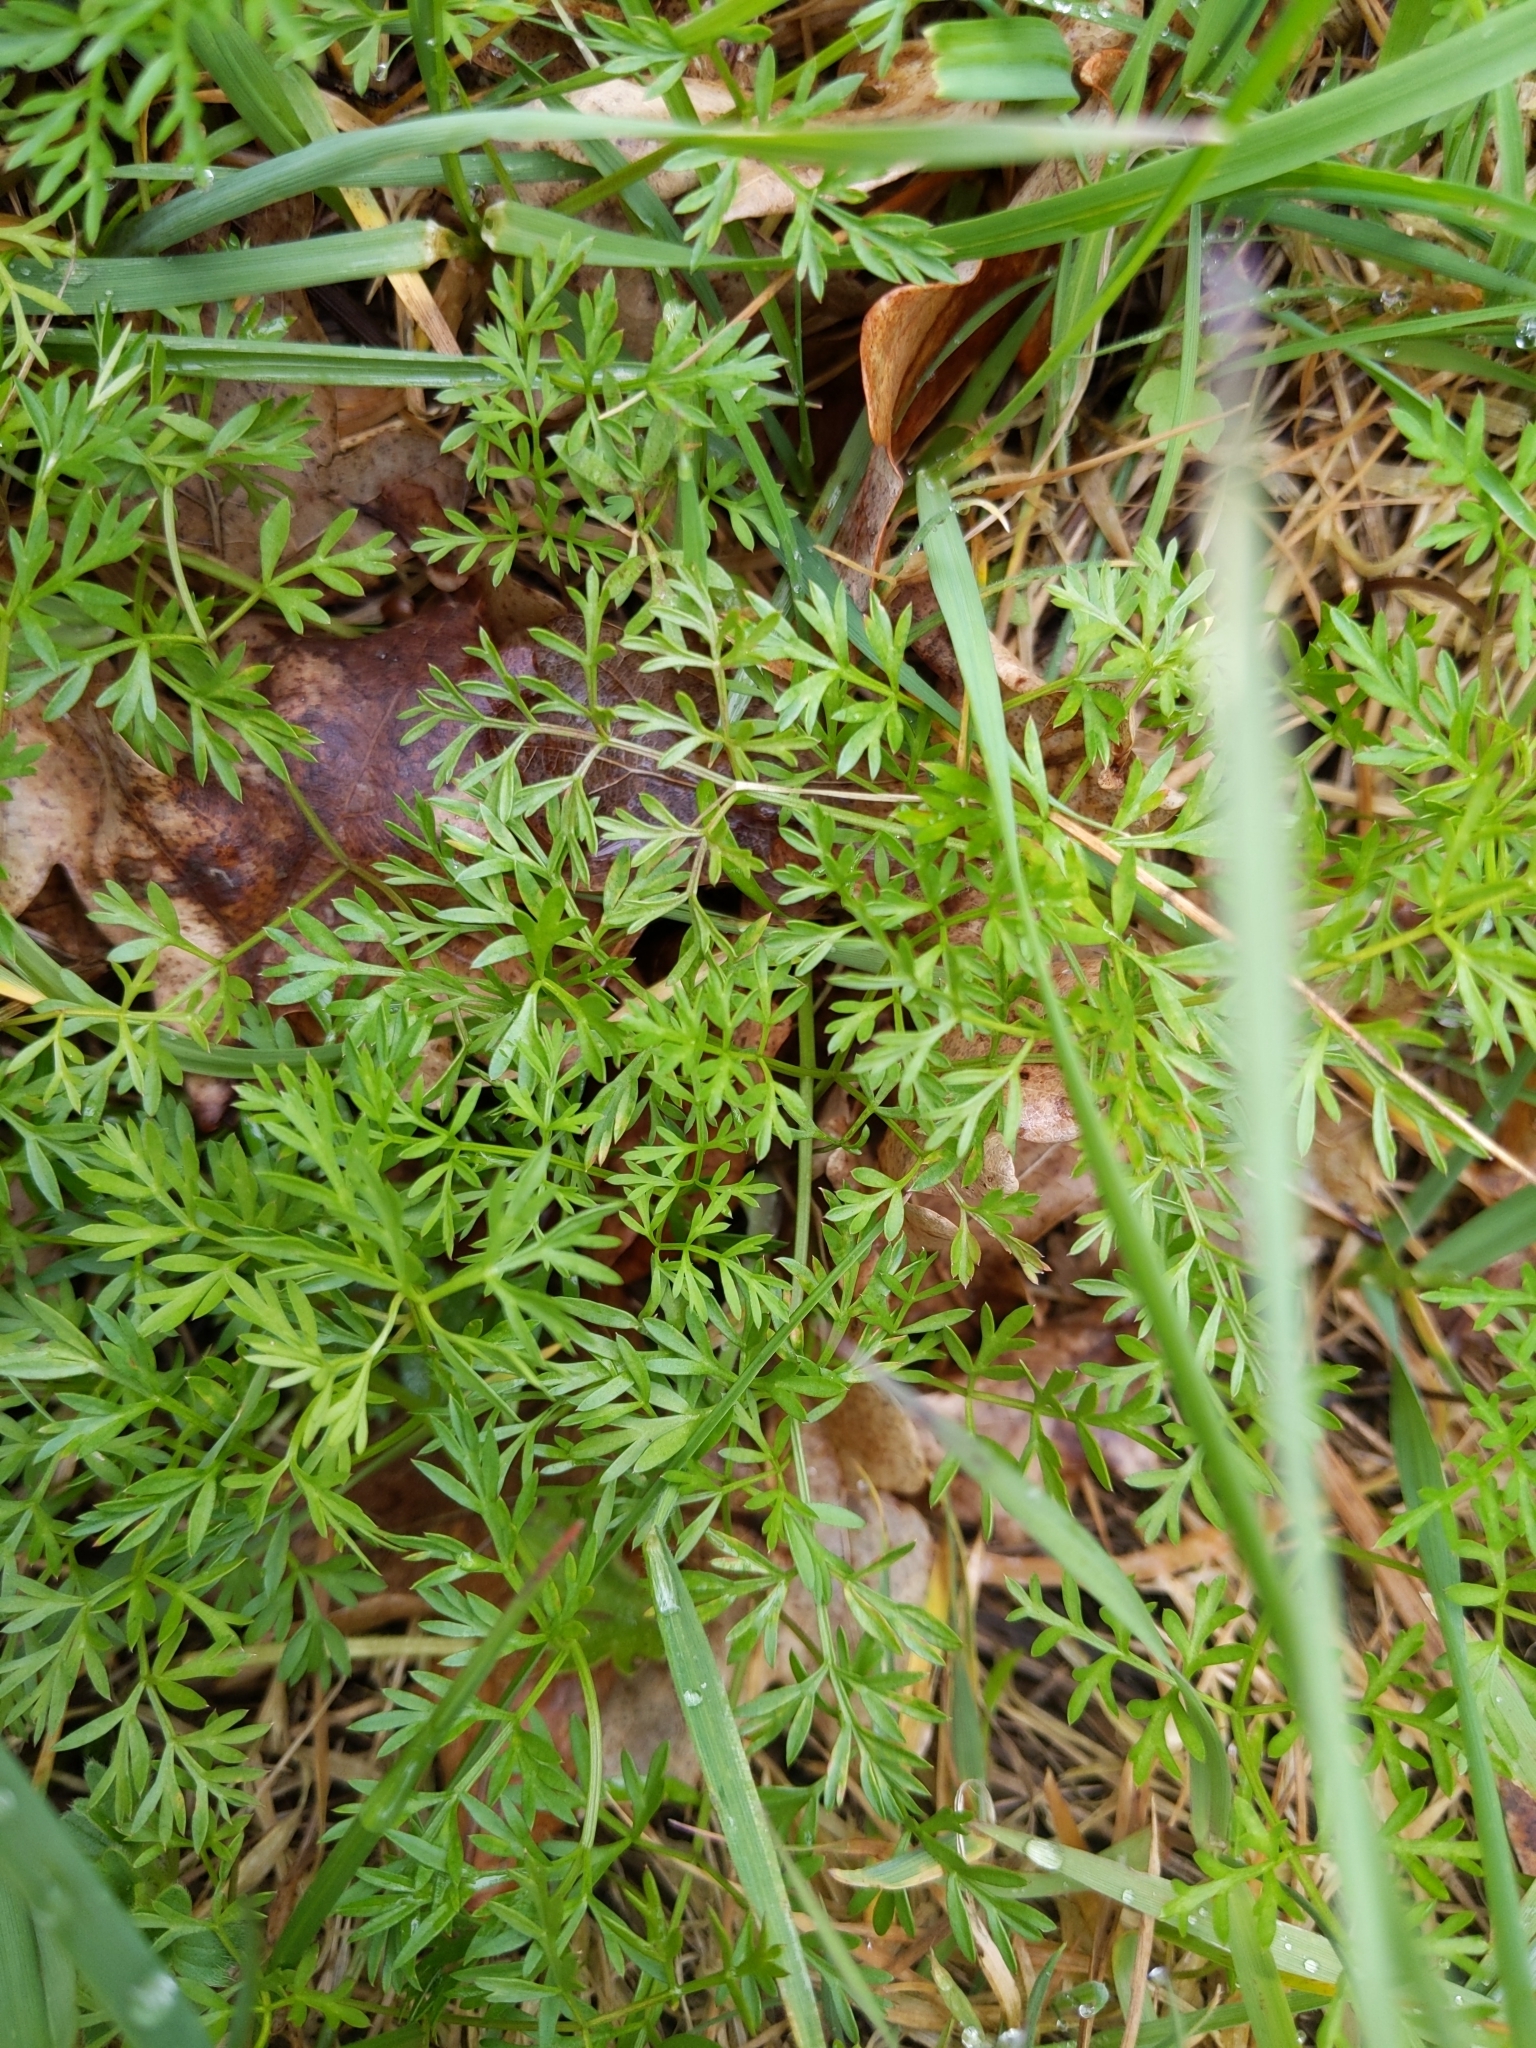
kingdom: Plantae
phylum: Tracheophyta
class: Magnoliopsida
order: Apiales
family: Apiaceae
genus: Conopodium
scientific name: Conopodium majus
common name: Pignut
